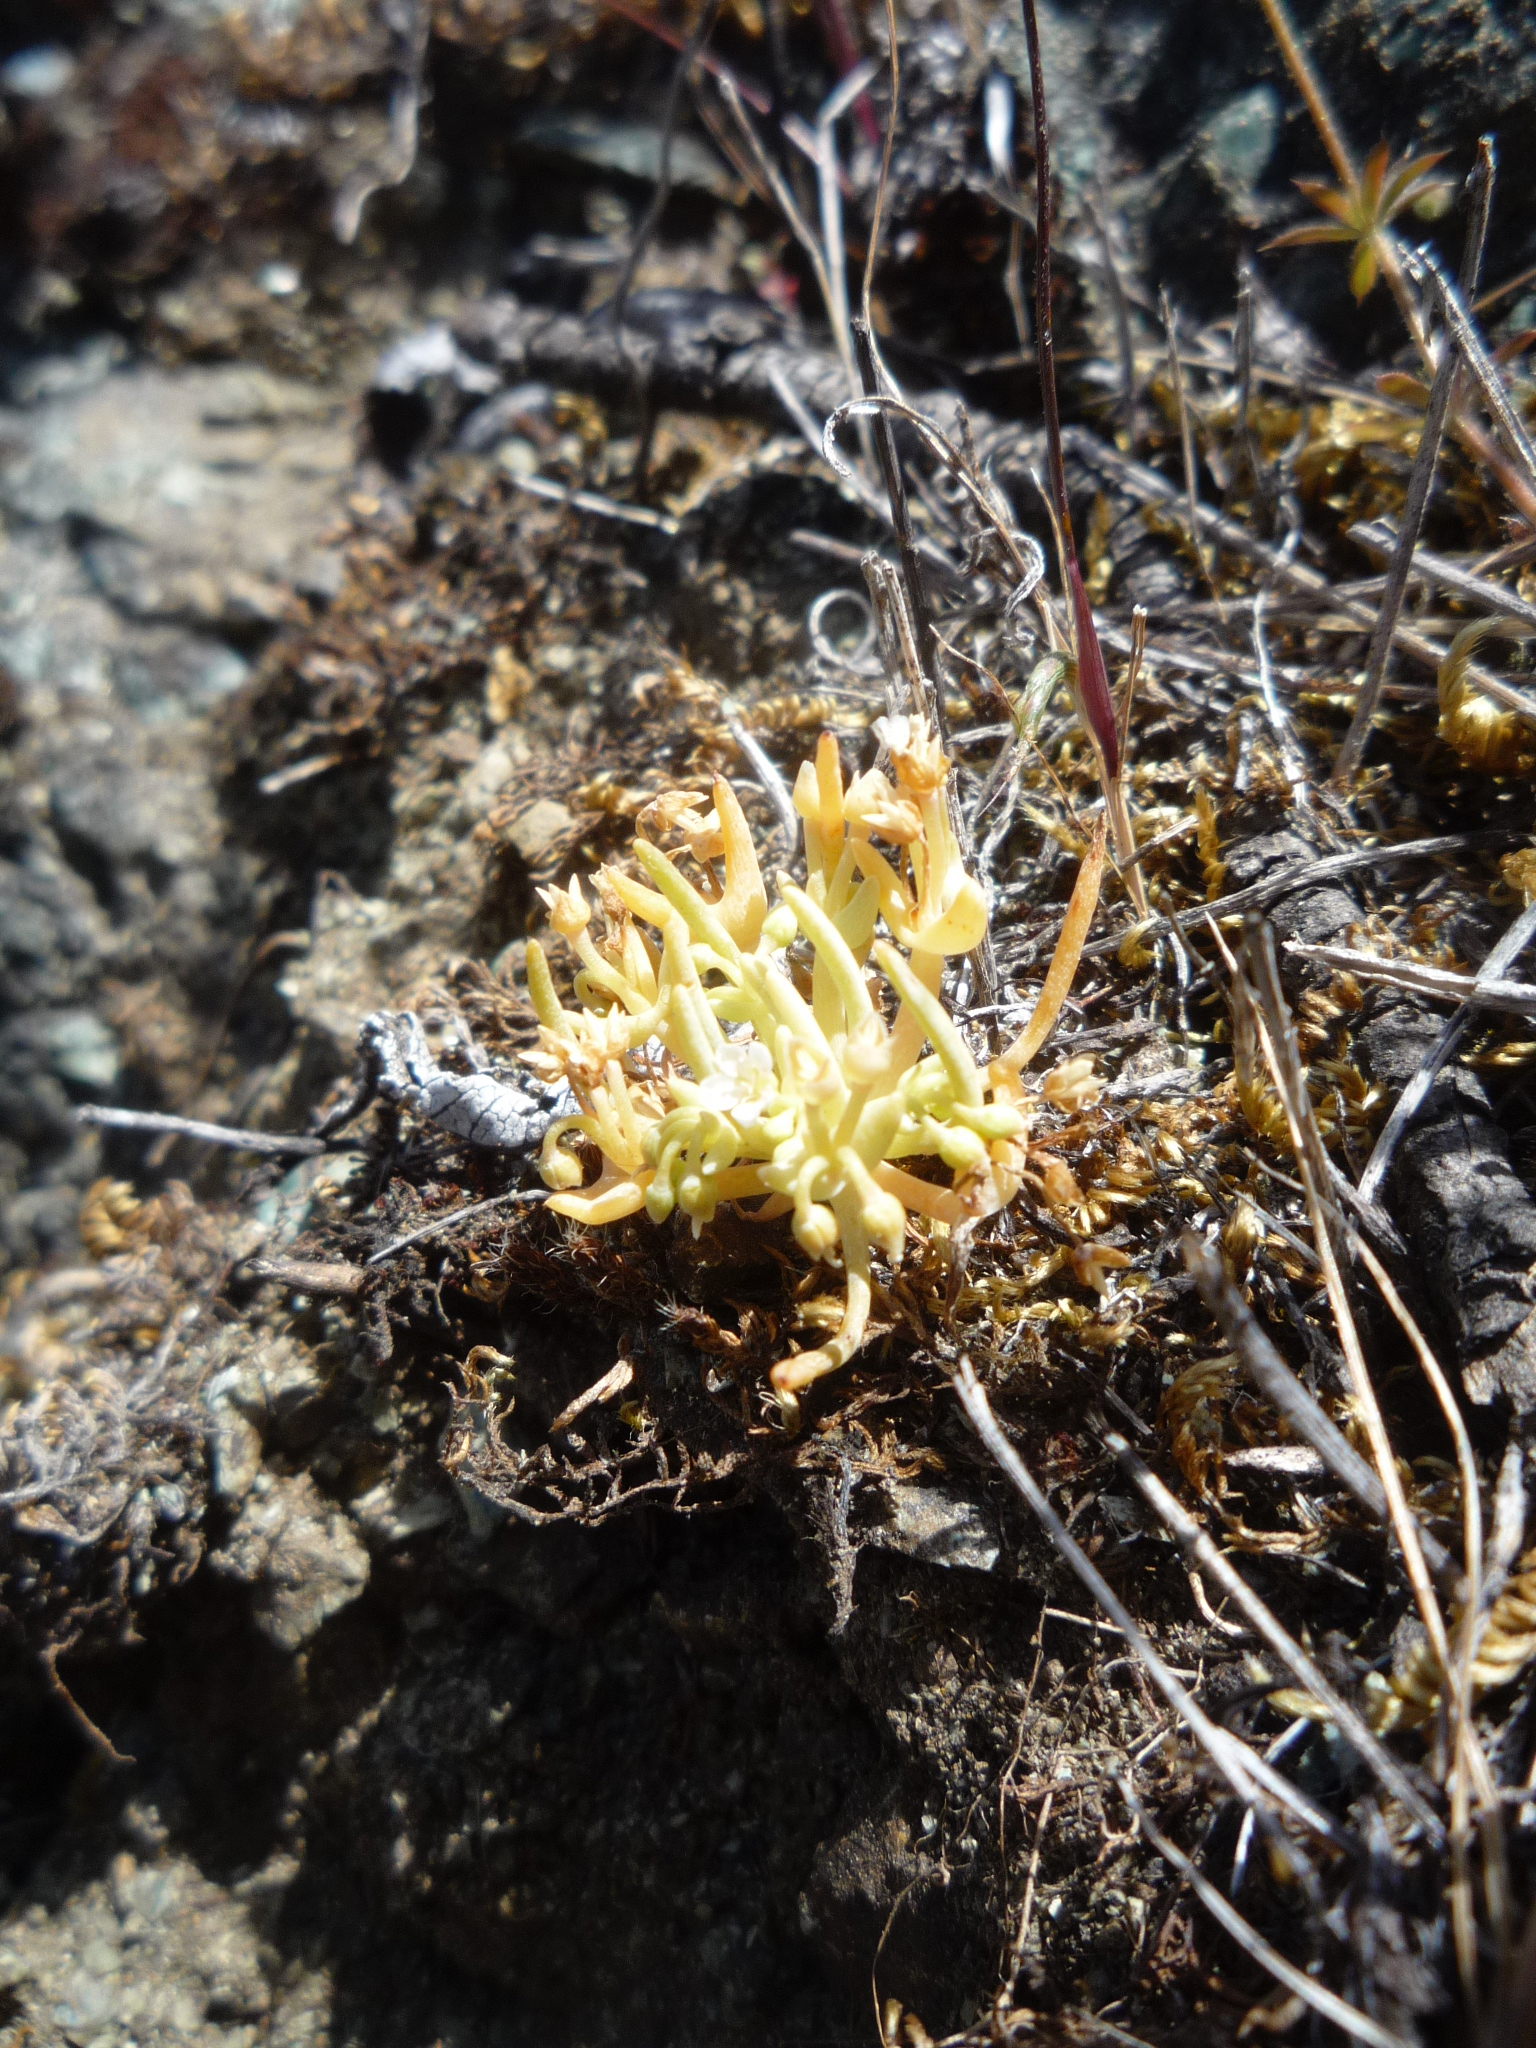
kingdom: Plantae
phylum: Tracheophyta
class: Magnoliopsida
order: Caryophyllales
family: Montiaceae
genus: Claytonia
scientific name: Claytonia exigua
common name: Pale spring beauty
